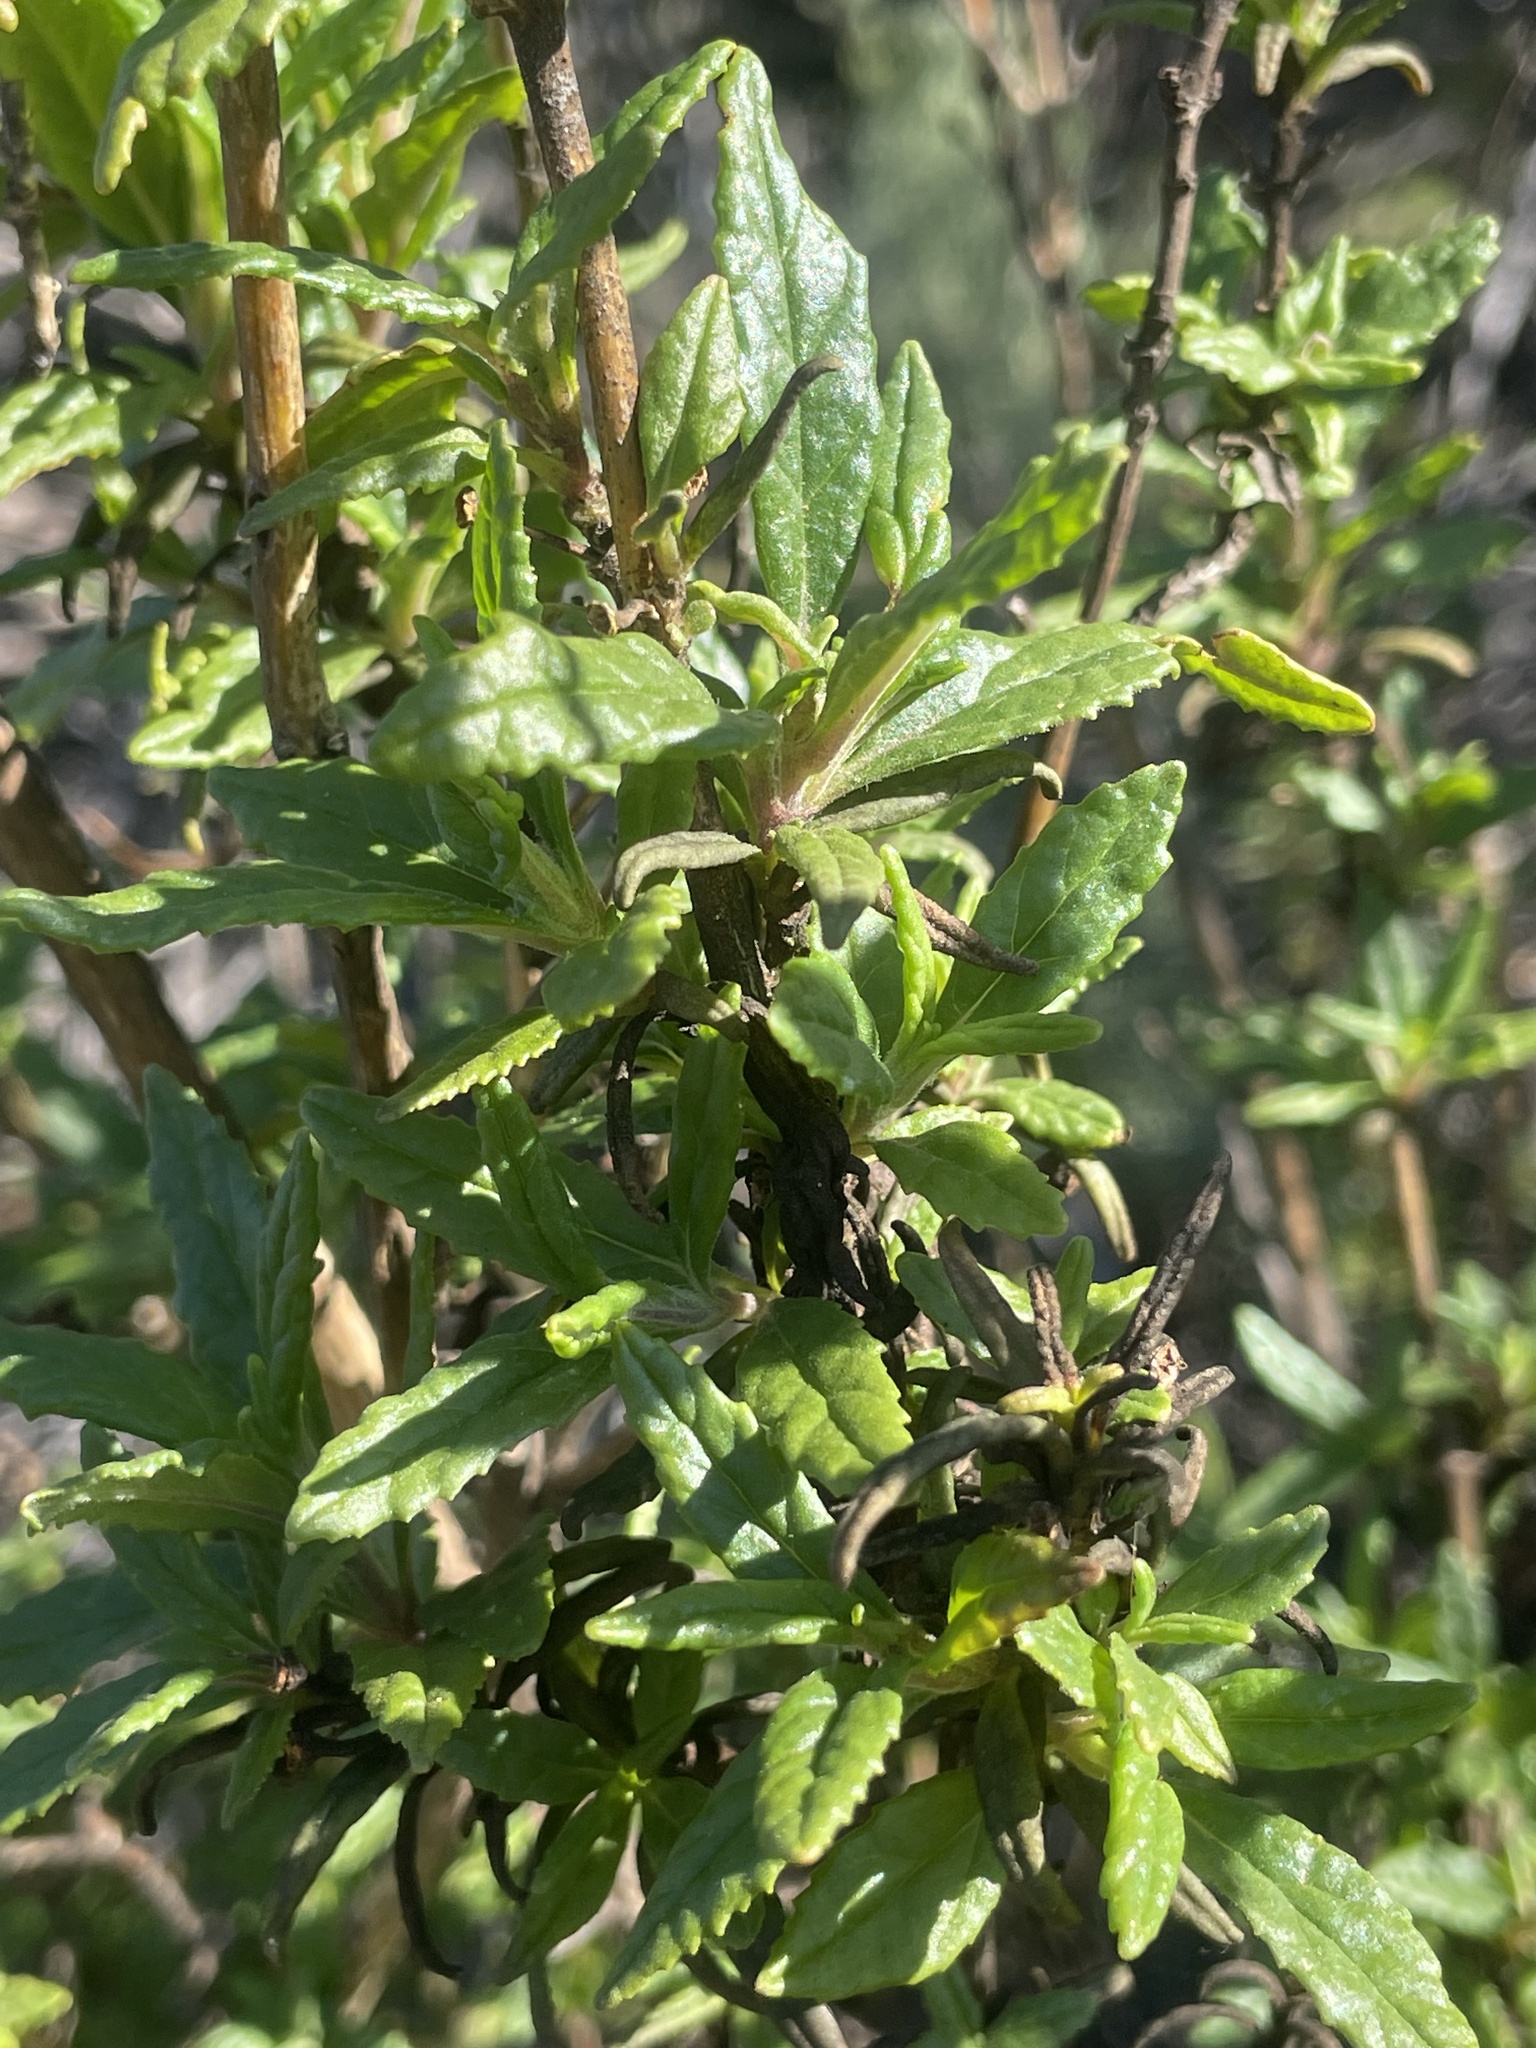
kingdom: Plantae
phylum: Tracheophyta
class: Magnoliopsida
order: Lamiales
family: Phrymaceae
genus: Diplacus
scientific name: Diplacus aurantiacus
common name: Bush monkey-flower
